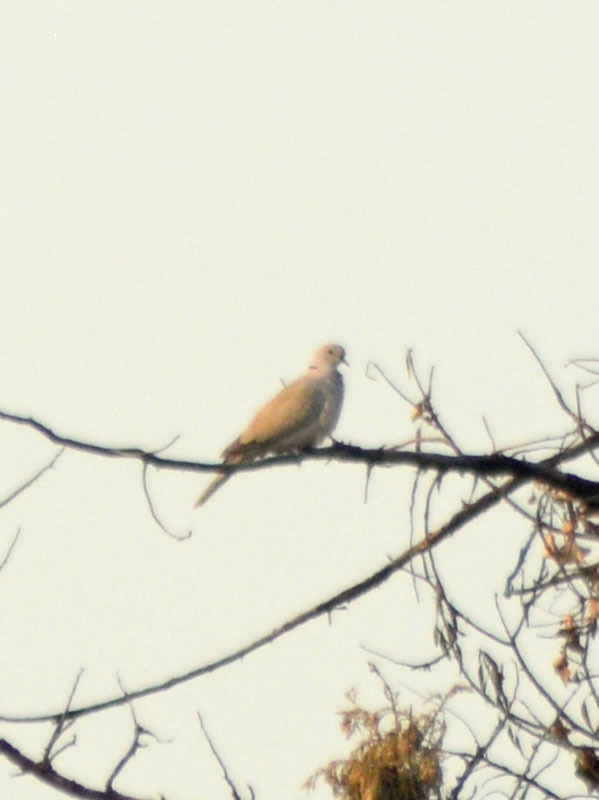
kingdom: Animalia
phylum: Chordata
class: Aves
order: Columbiformes
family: Columbidae
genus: Streptopelia
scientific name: Streptopelia decaocto
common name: Eurasian collared dove
